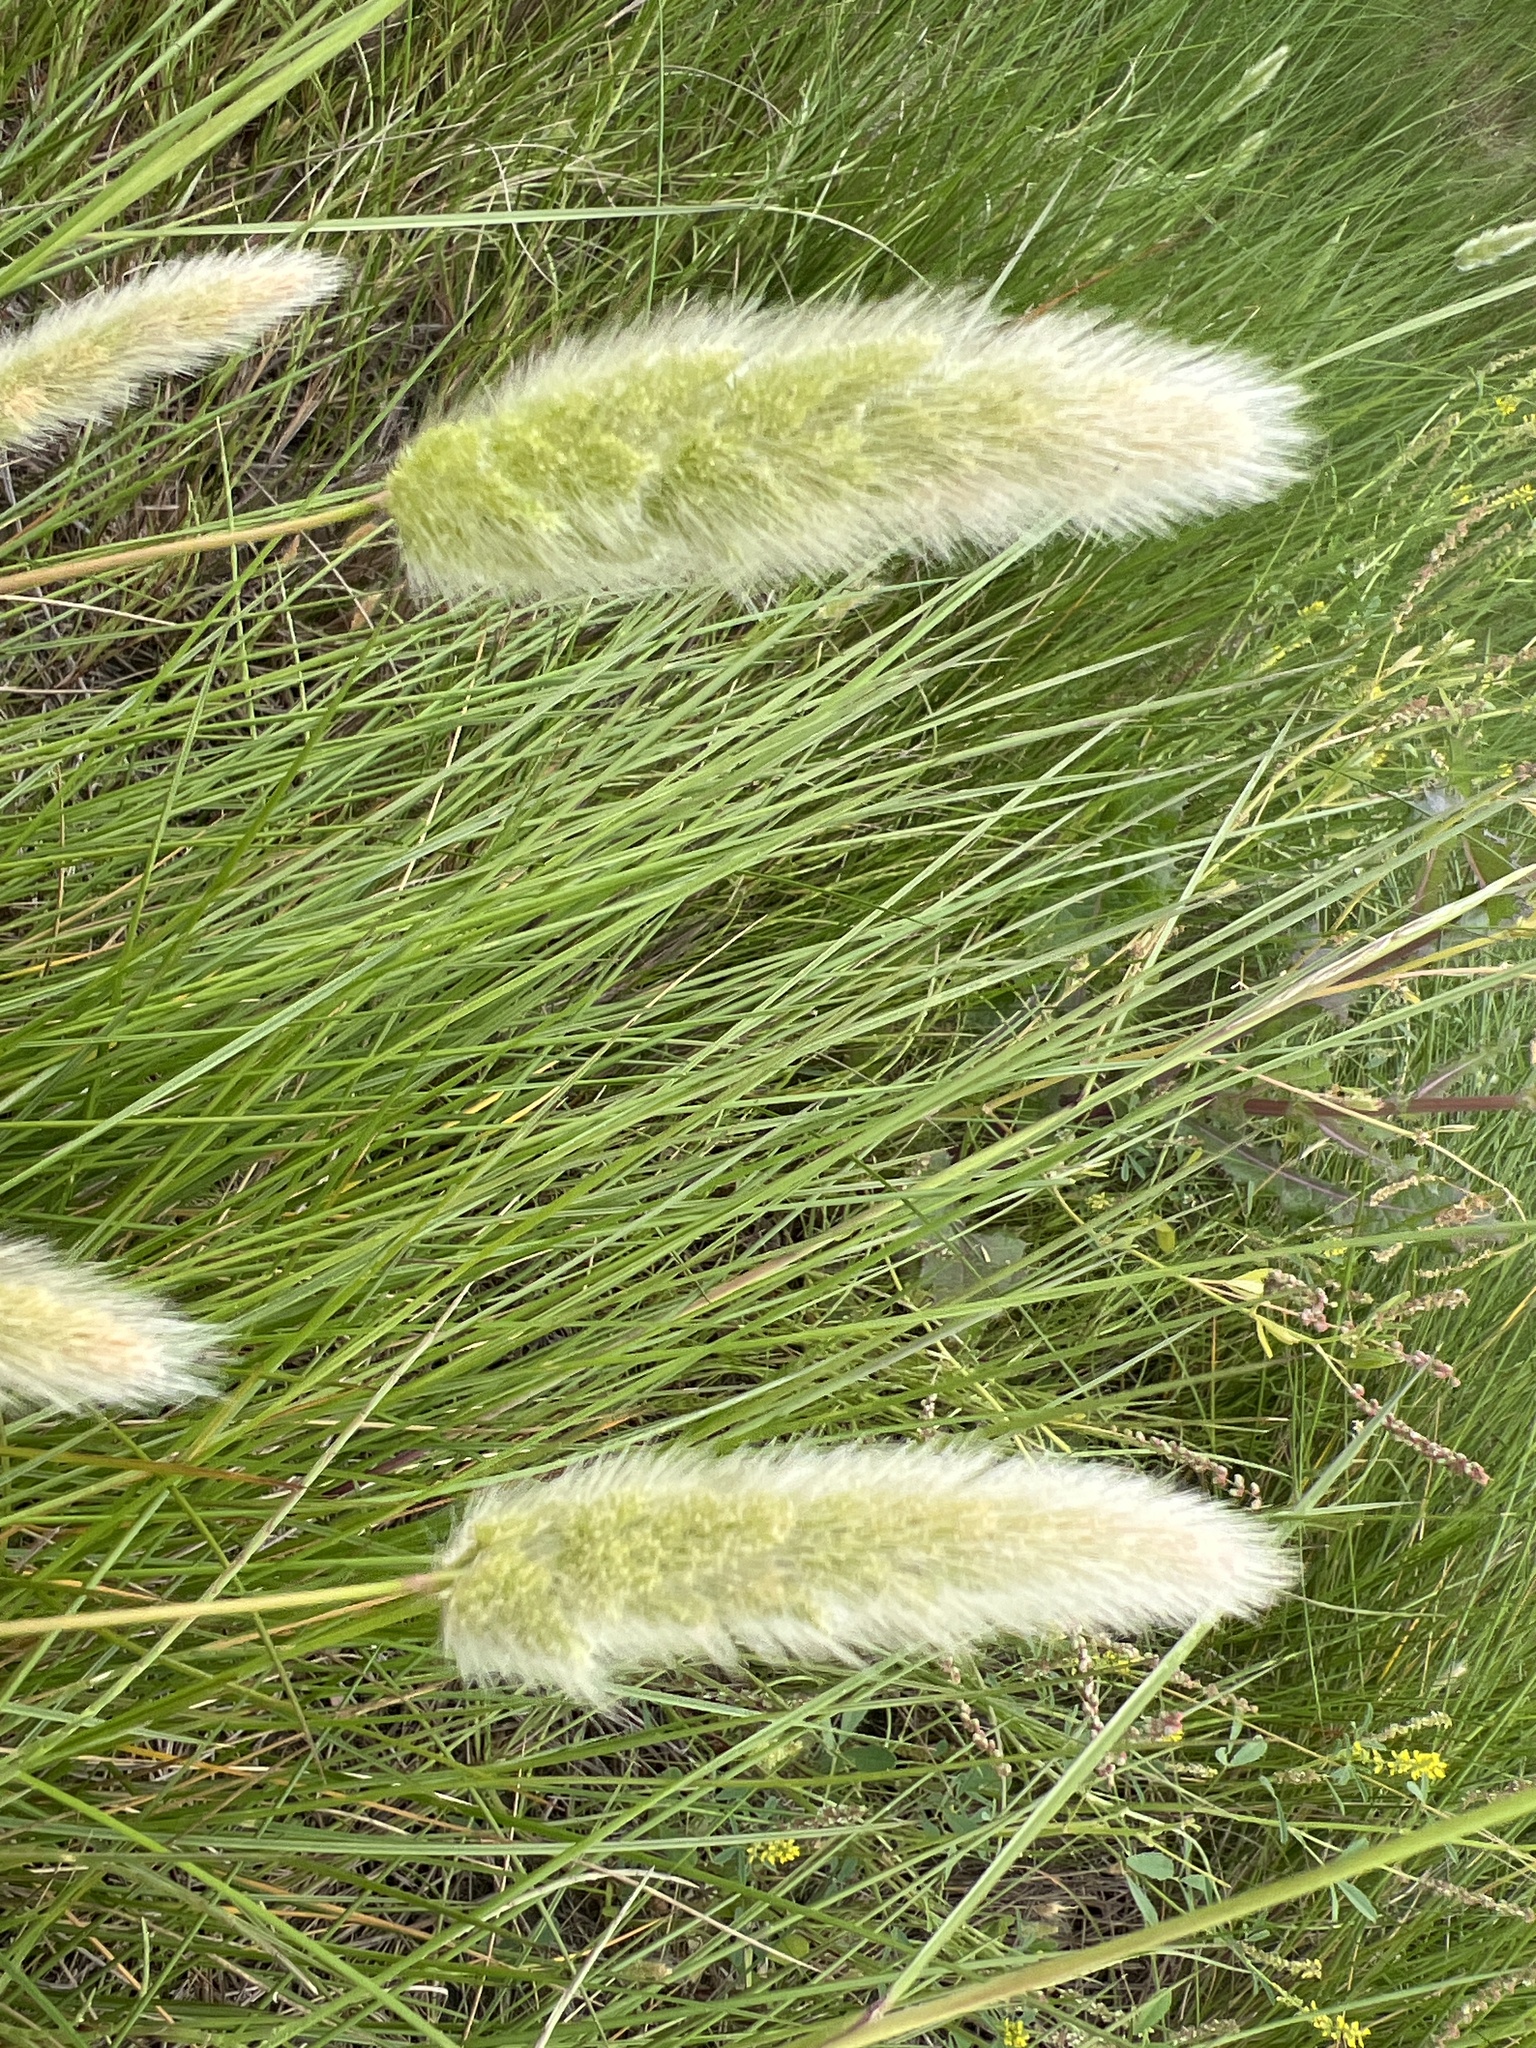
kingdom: Plantae
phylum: Tracheophyta
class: Liliopsida
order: Poales
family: Poaceae
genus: Polypogon
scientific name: Polypogon monspeliensis
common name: Annual rabbitsfoot grass
